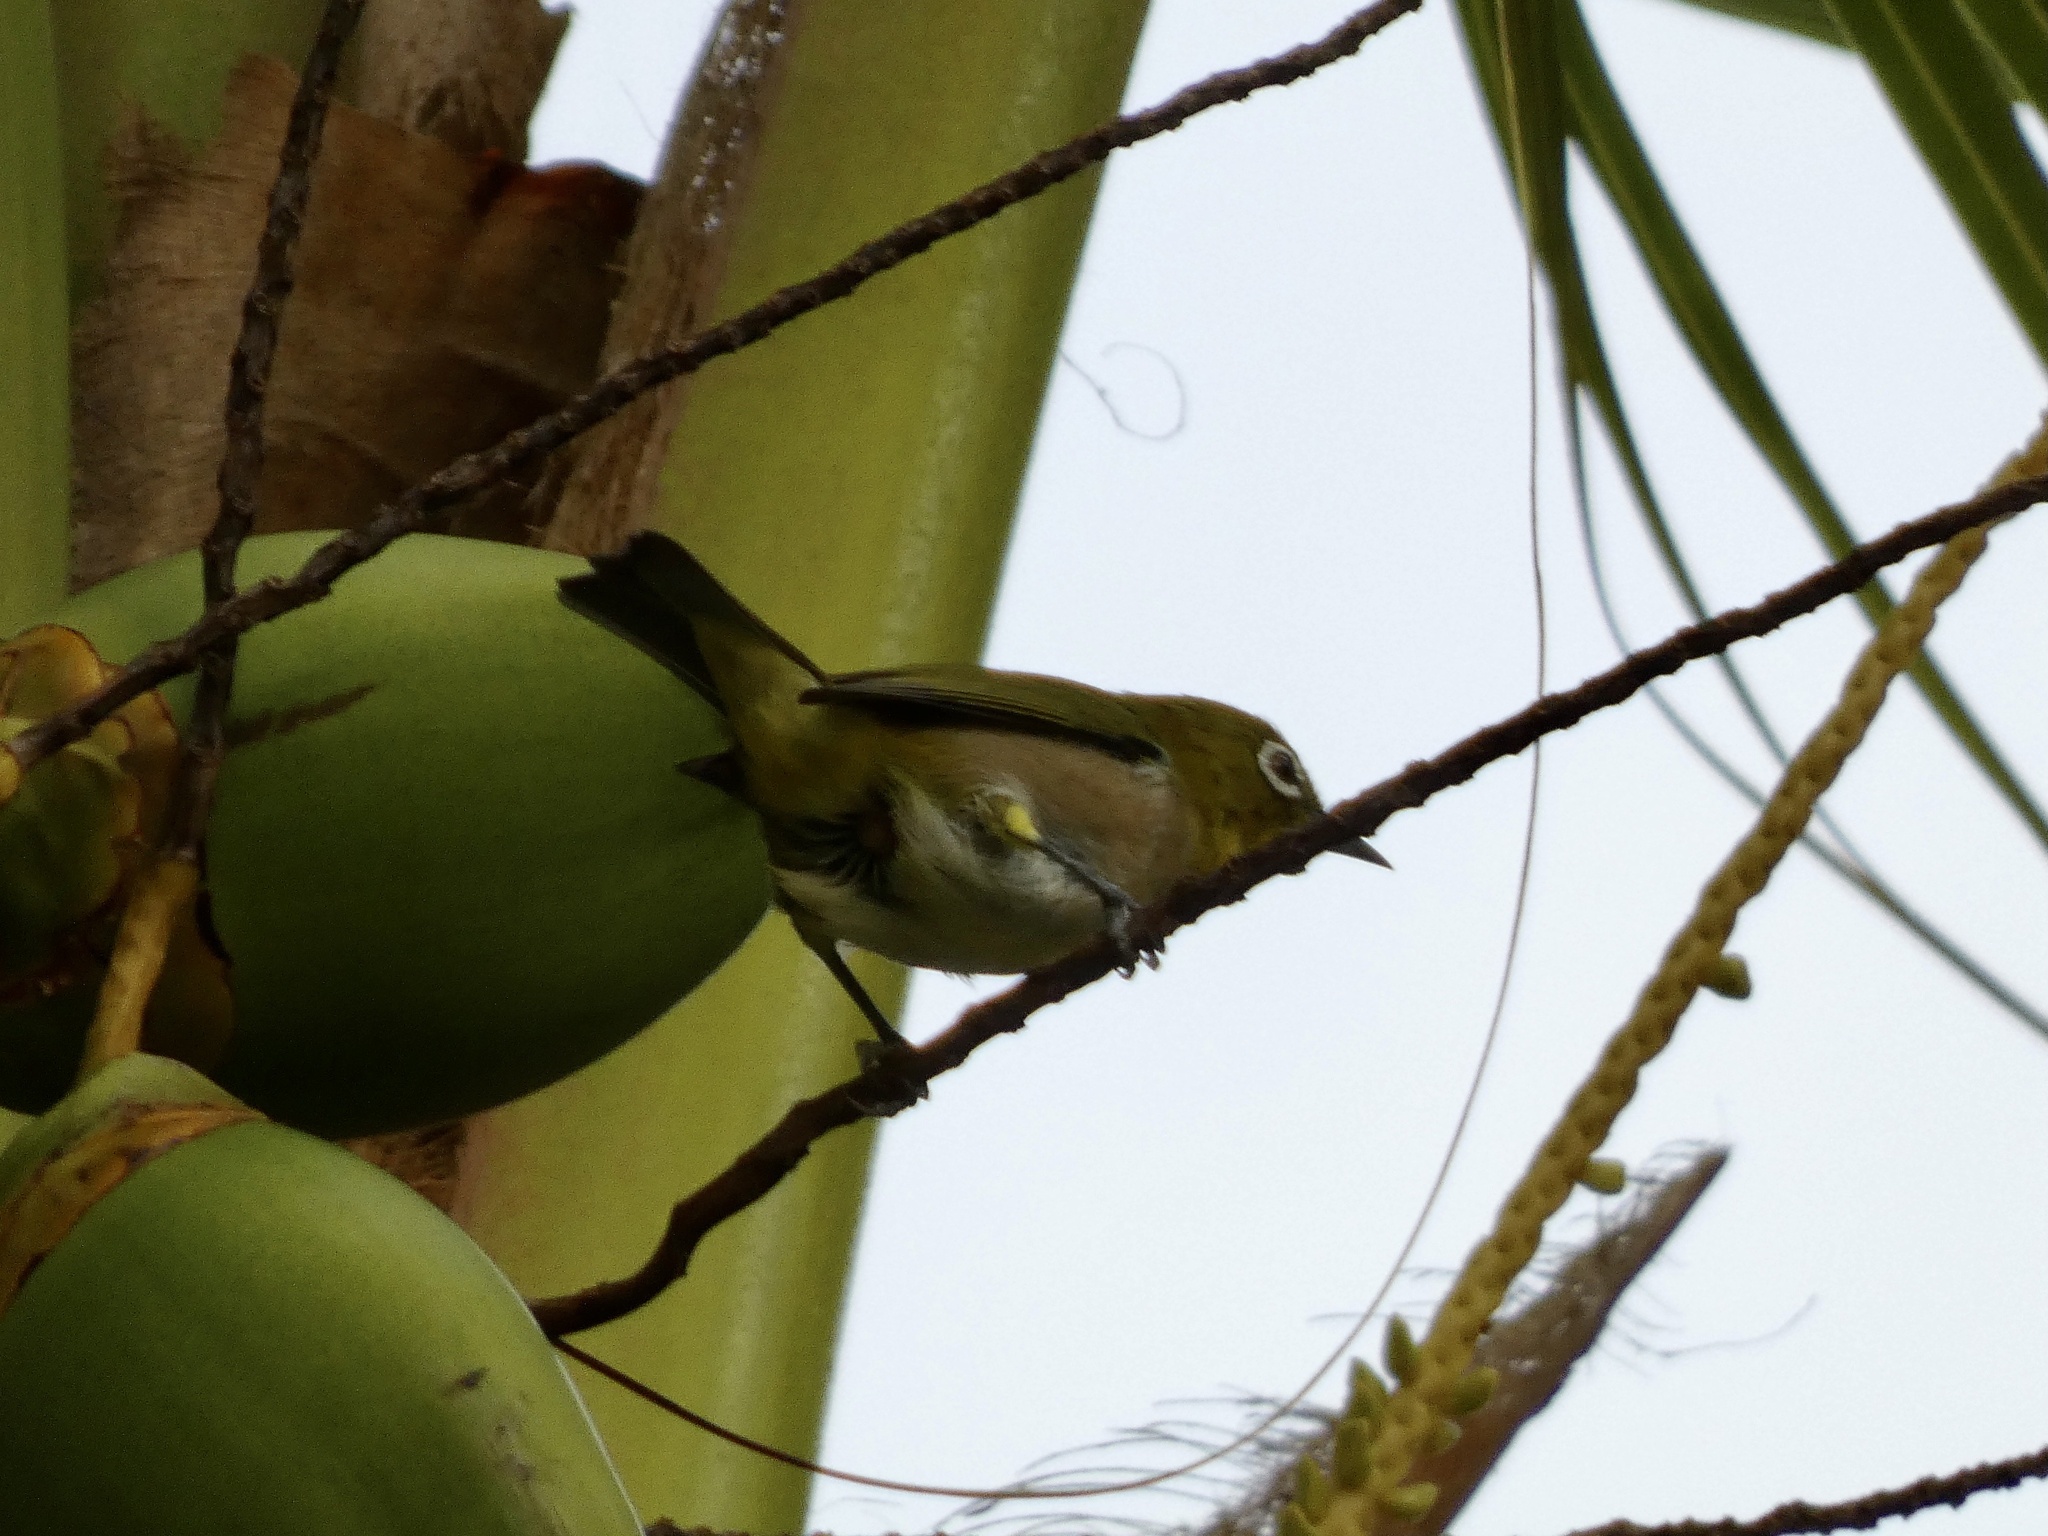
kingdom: Animalia
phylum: Chordata
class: Aves
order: Passeriformes
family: Zosteropidae
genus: Zosterops
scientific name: Zosterops japonicus
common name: Japanese white-eye
